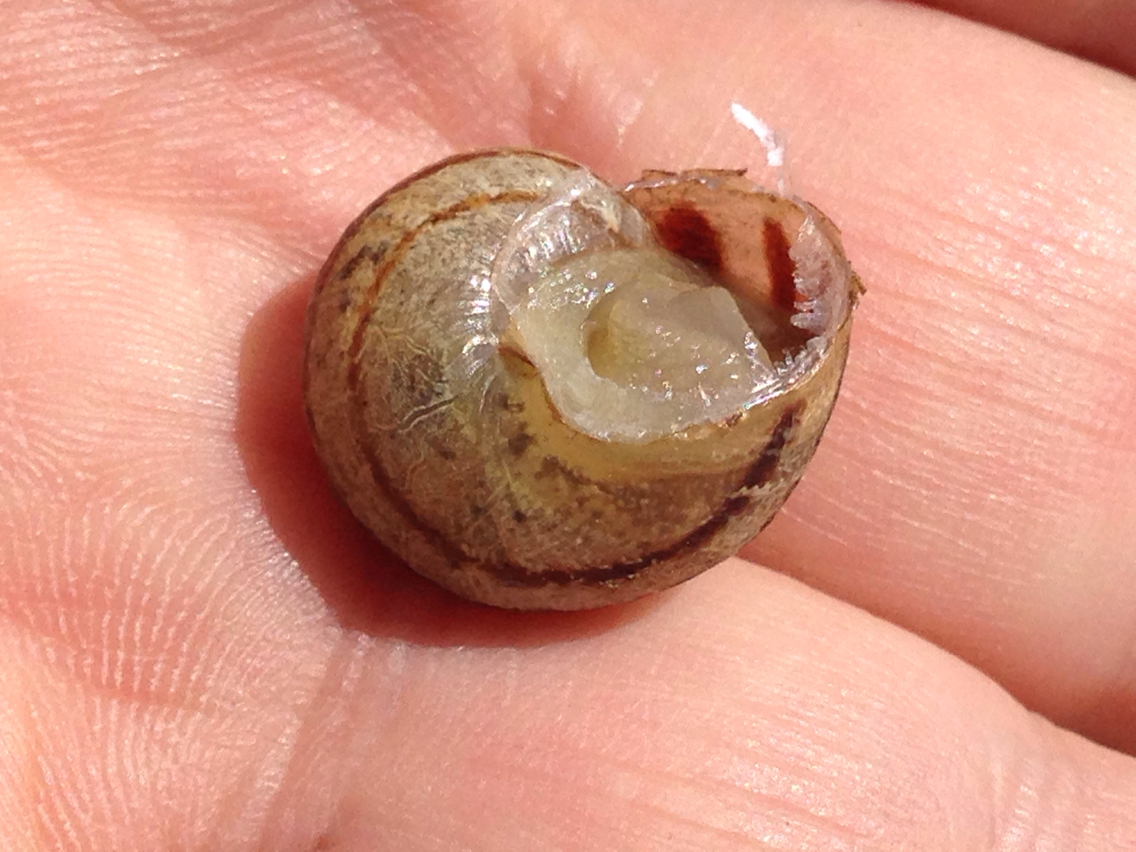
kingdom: Animalia
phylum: Mollusca
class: Gastropoda
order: Stylommatophora
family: Helicidae
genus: Cornu
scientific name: Cornu aspersum
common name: Brown garden snail
